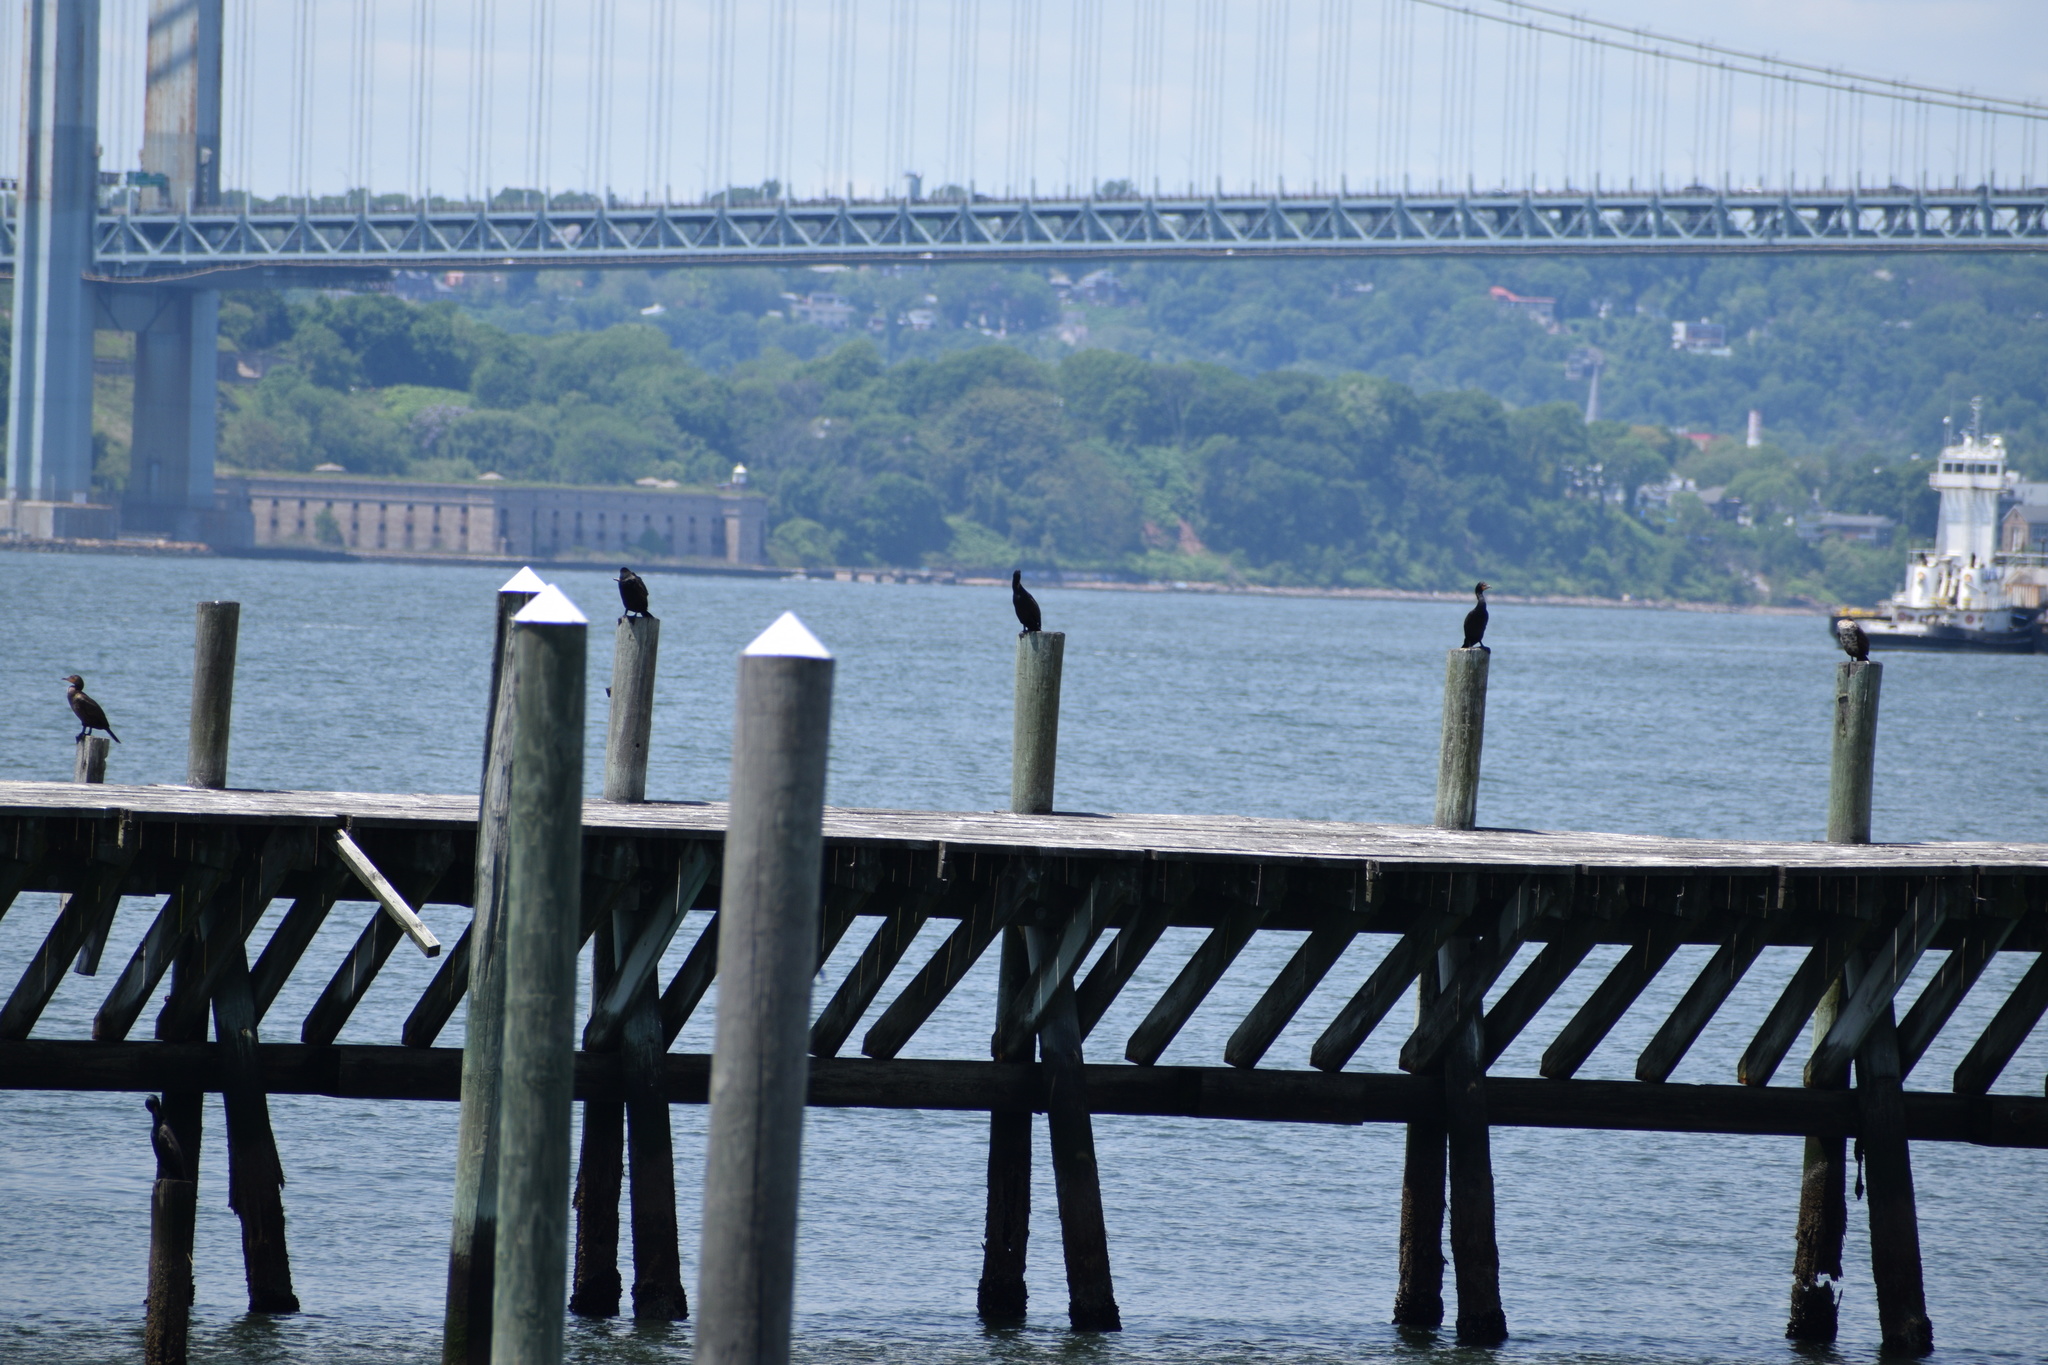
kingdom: Animalia
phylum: Chordata
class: Aves
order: Suliformes
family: Phalacrocoracidae
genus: Phalacrocorax
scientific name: Phalacrocorax auritus
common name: Double-crested cormorant
